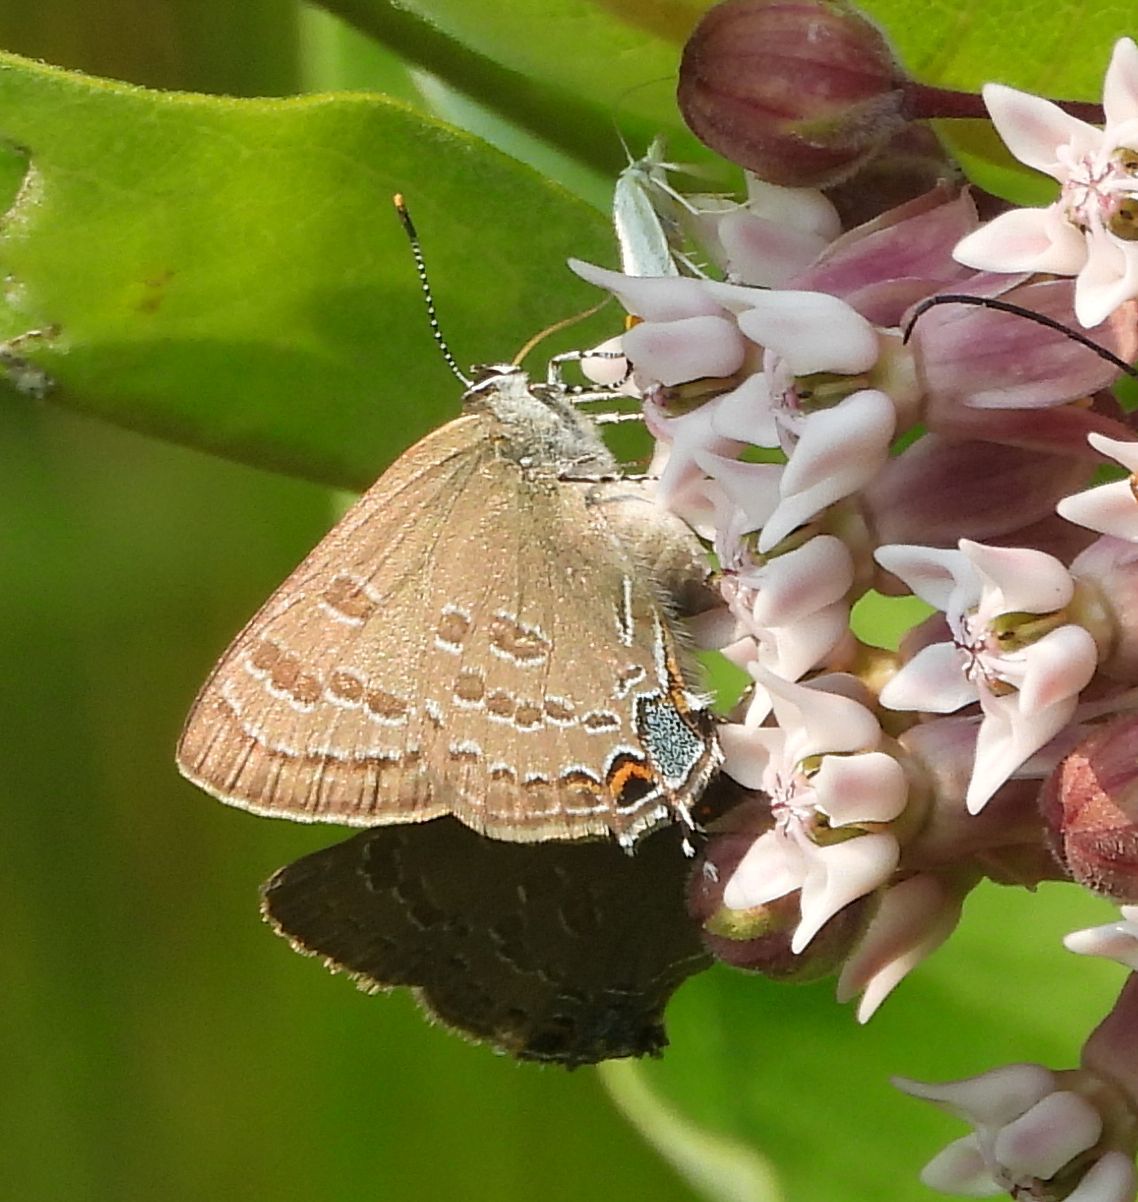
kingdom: Animalia
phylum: Arthropoda
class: Insecta
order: Lepidoptera
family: Lycaenidae
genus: Strymon
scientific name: Strymon caryaevorus
